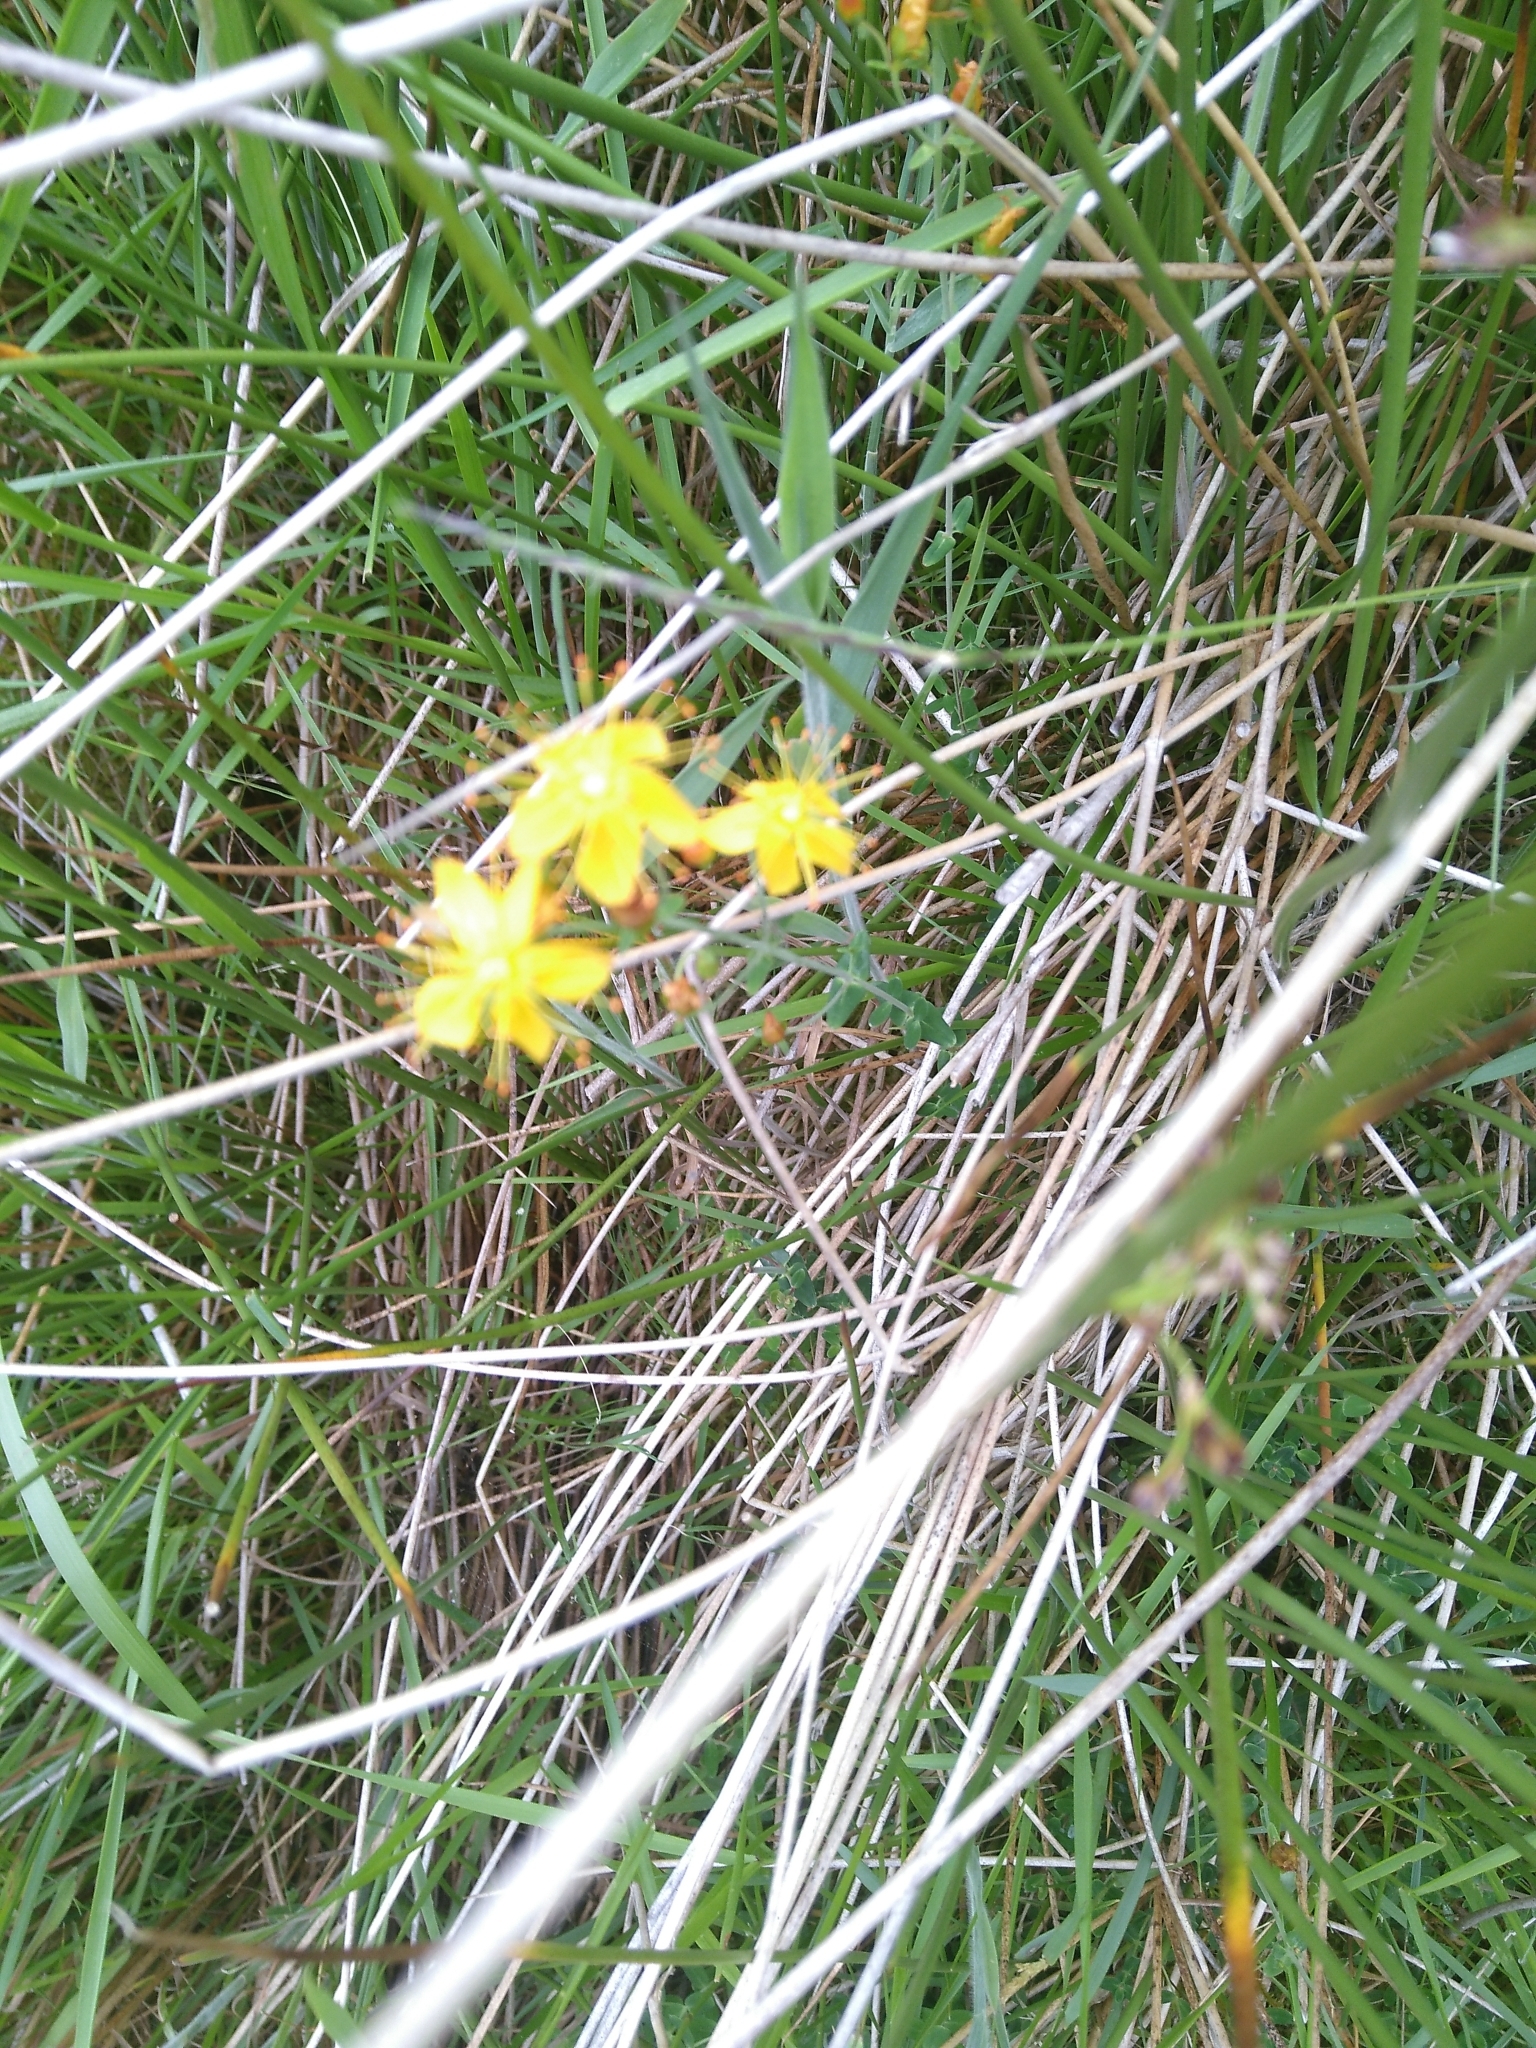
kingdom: Plantae
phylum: Tracheophyta
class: Magnoliopsida
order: Malpighiales
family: Hypericaceae
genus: Hypericum
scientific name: Hypericum pulchrum
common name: Slender st. john's-wort
